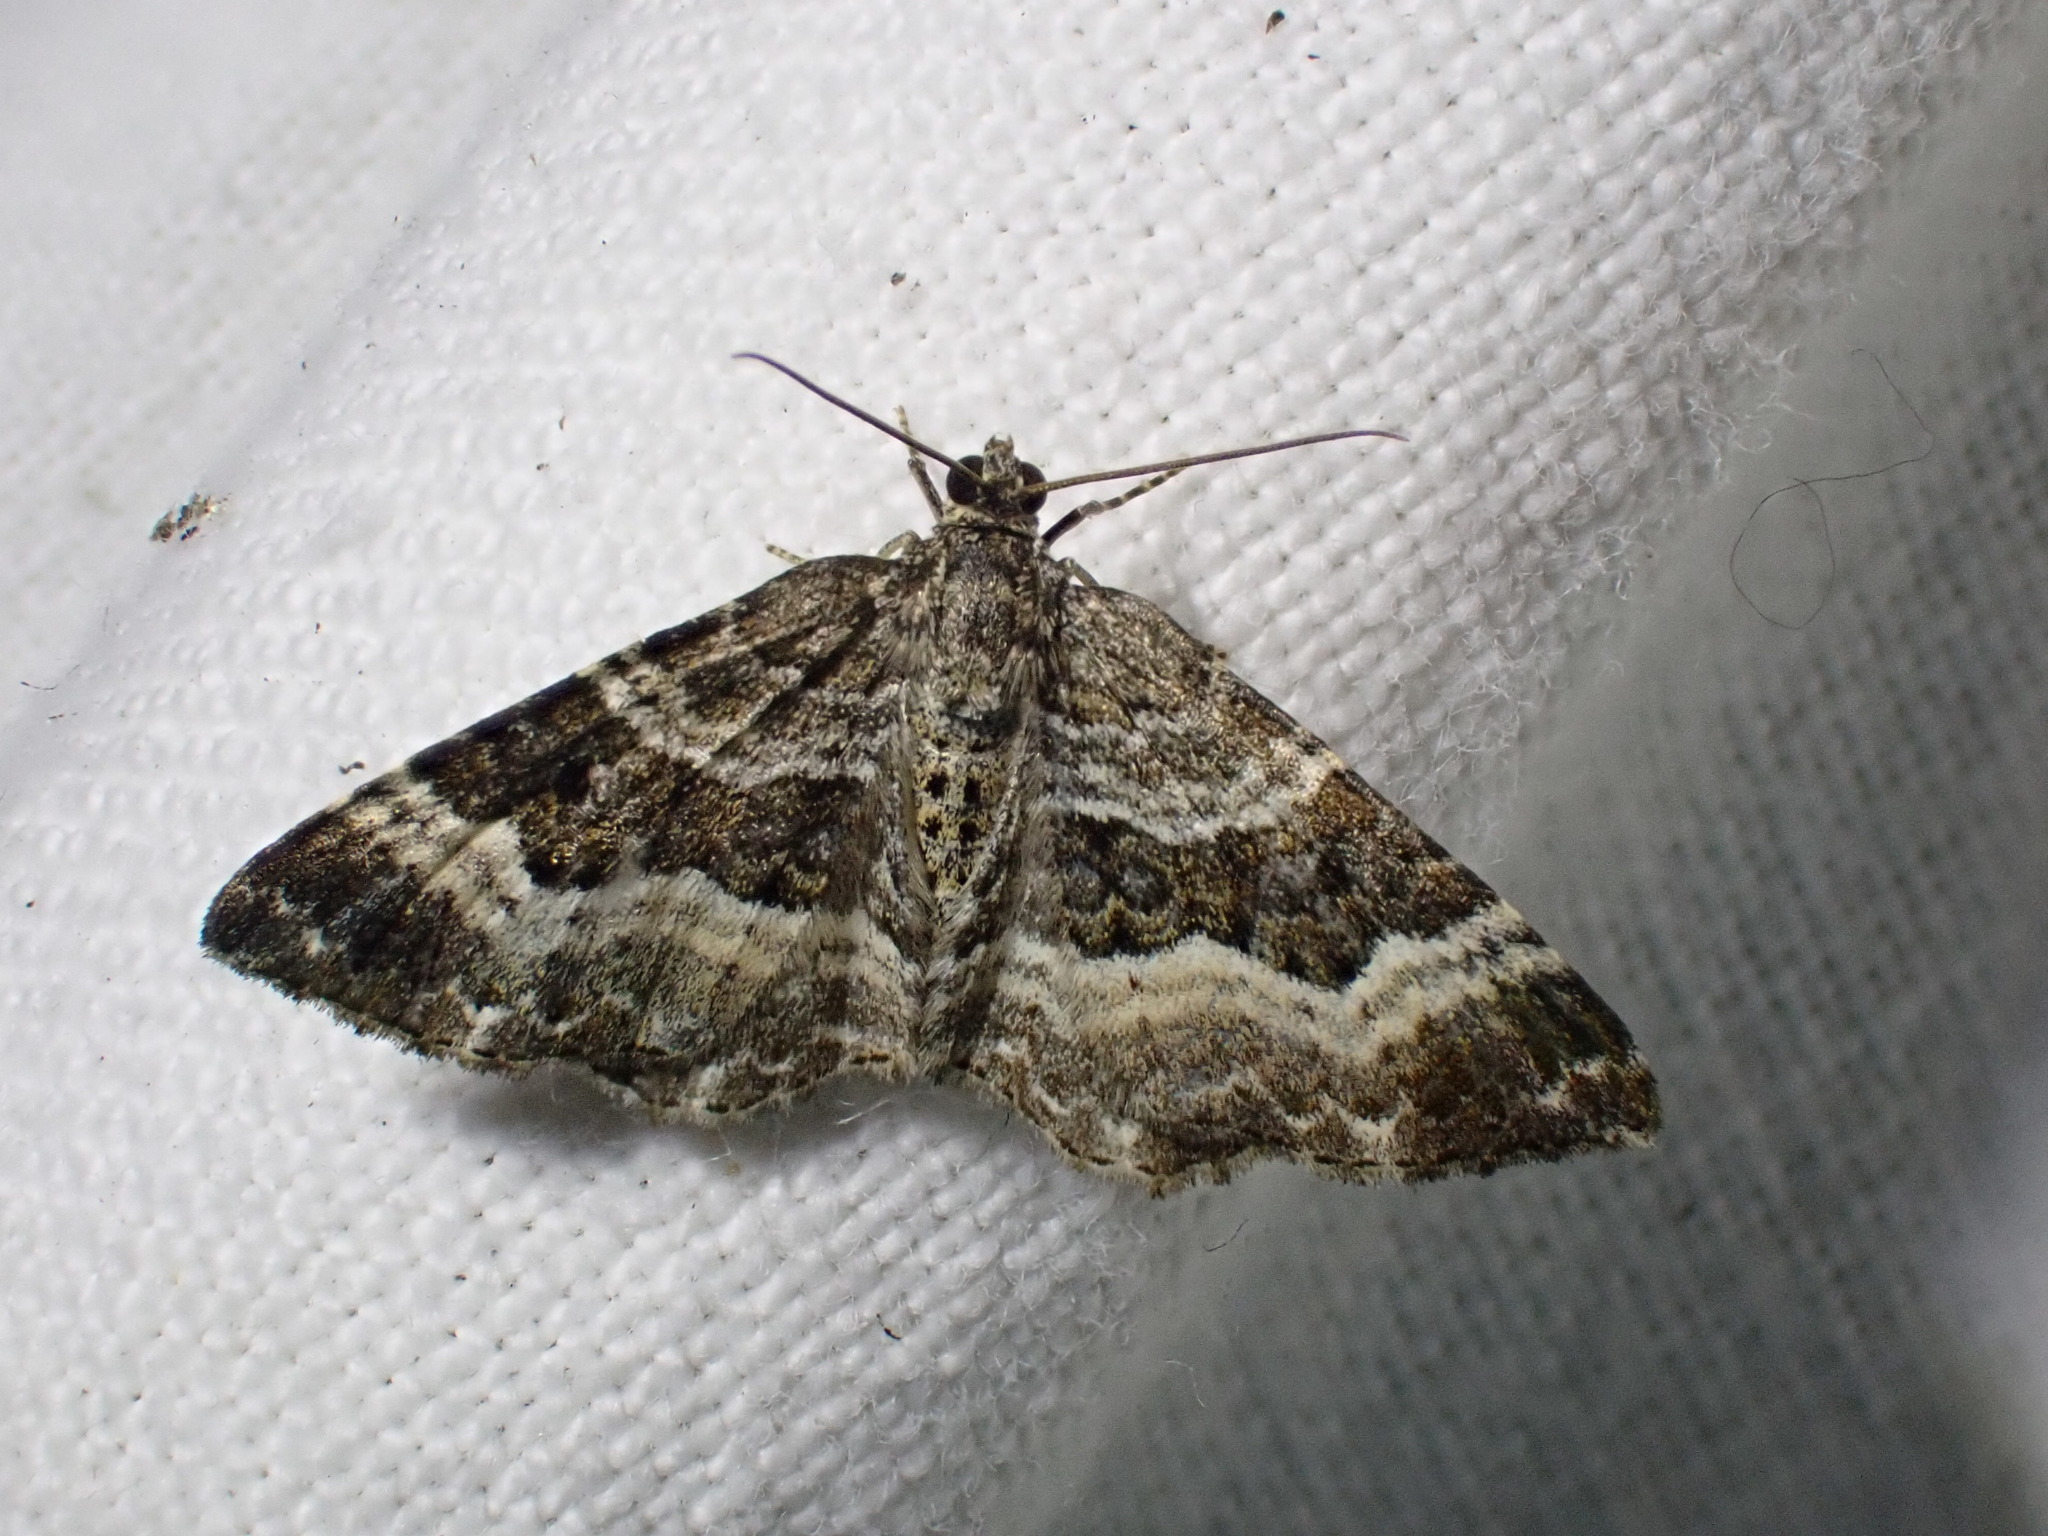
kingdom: Animalia
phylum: Arthropoda
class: Insecta
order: Lepidoptera
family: Geometridae
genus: Epirrhoe
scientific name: Epirrhoe alternata
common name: Common carpet
